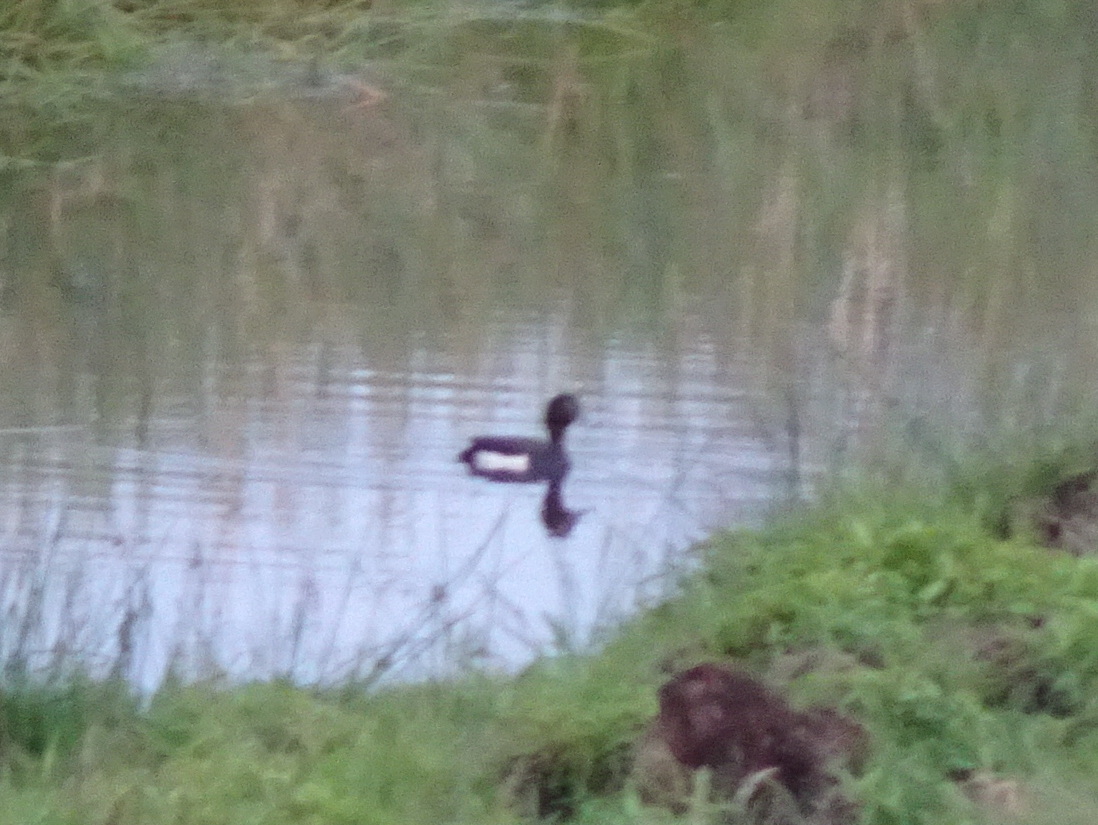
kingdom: Animalia
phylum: Chordata
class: Aves
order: Anseriformes
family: Anatidae
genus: Aythya
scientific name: Aythya fuligula
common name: Tufted duck
